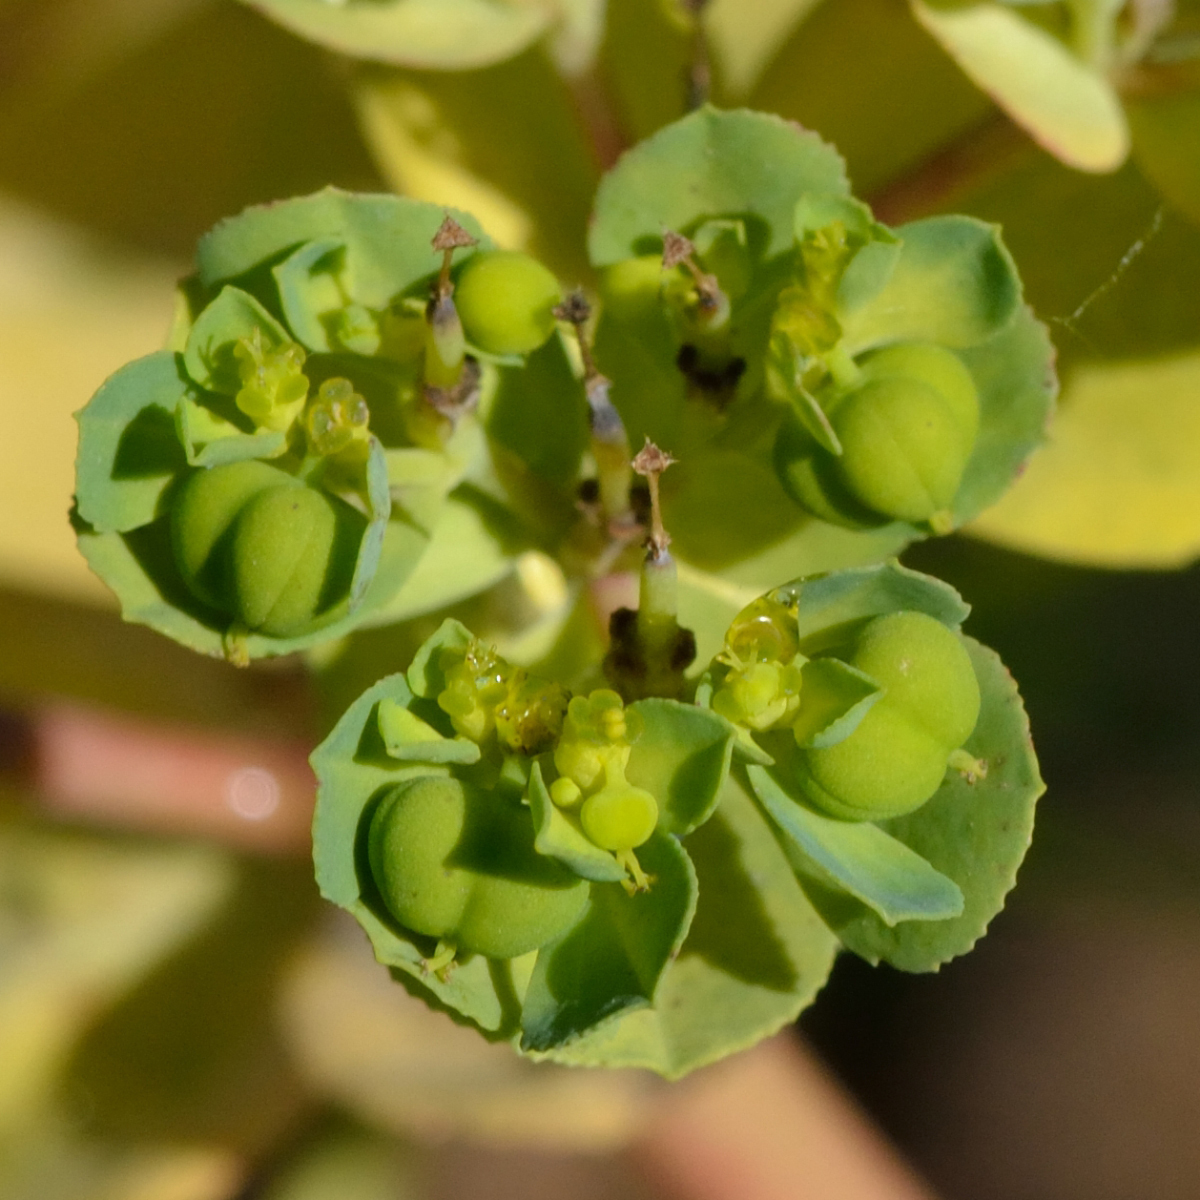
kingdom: Plantae
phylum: Tracheophyta
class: Magnoliopsida
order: Malpighiales
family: Euphorbiaceae
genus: Euphorbia
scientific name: Euphorbia helioscopia
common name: Sun spurge
